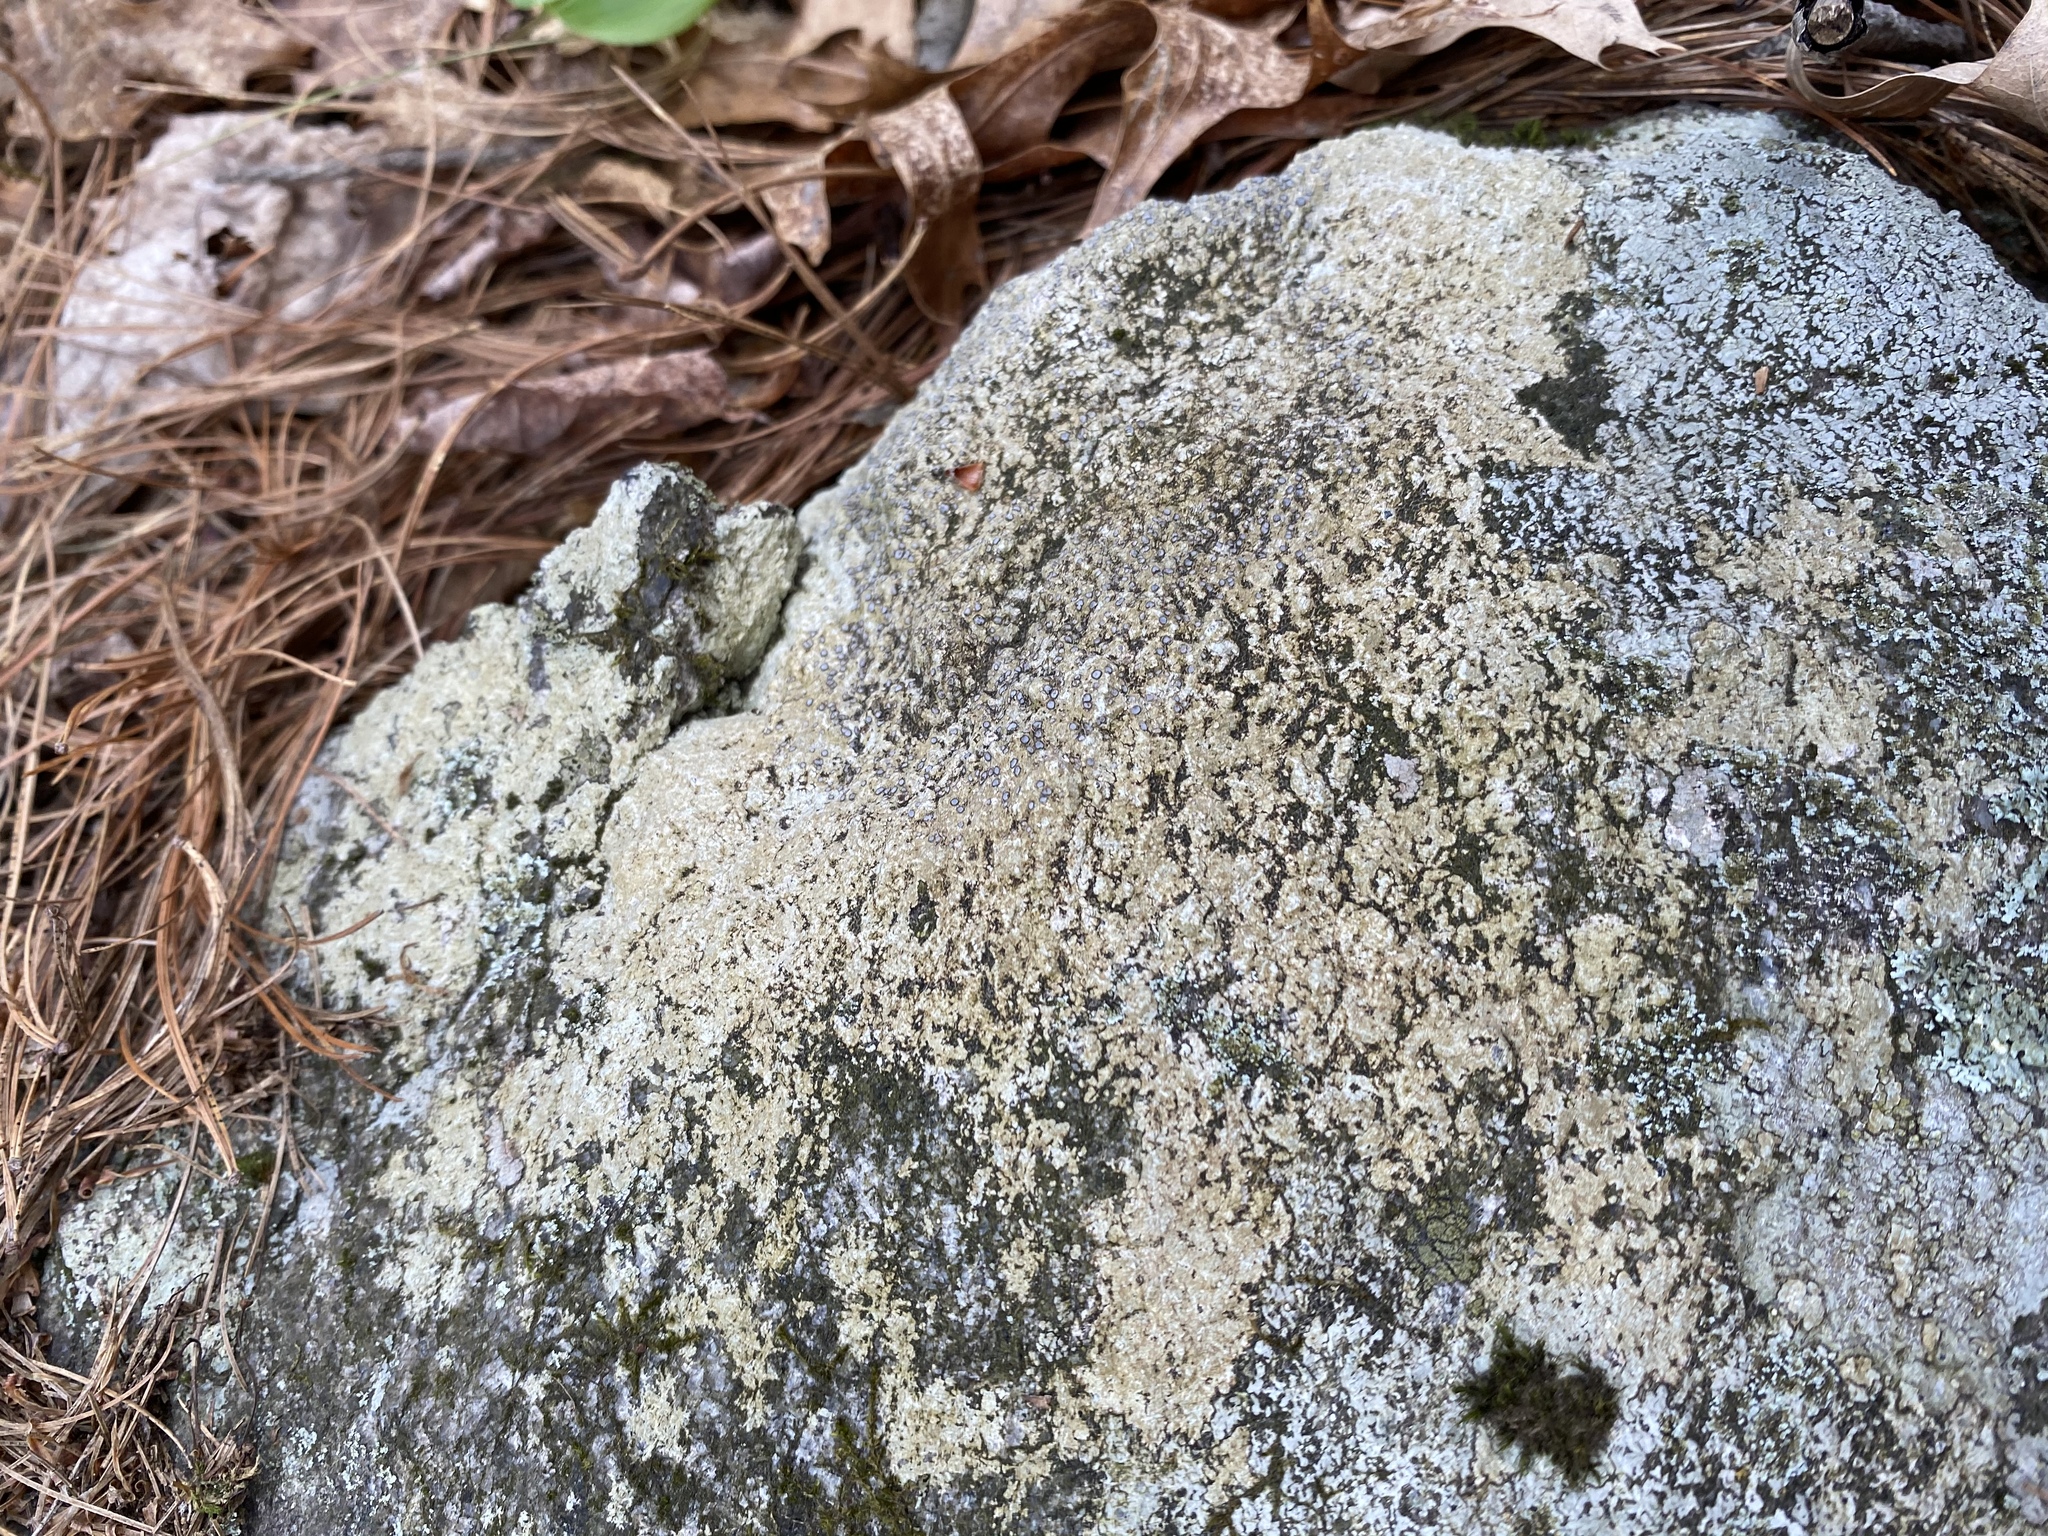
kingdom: Fungi
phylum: Ascomycota
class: Lecanoromycetes
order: Lecideales
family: Lecideaceae
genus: Porpidia
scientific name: Porpidia albocaerulescens
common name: Smokey-eyed boulder lichen
